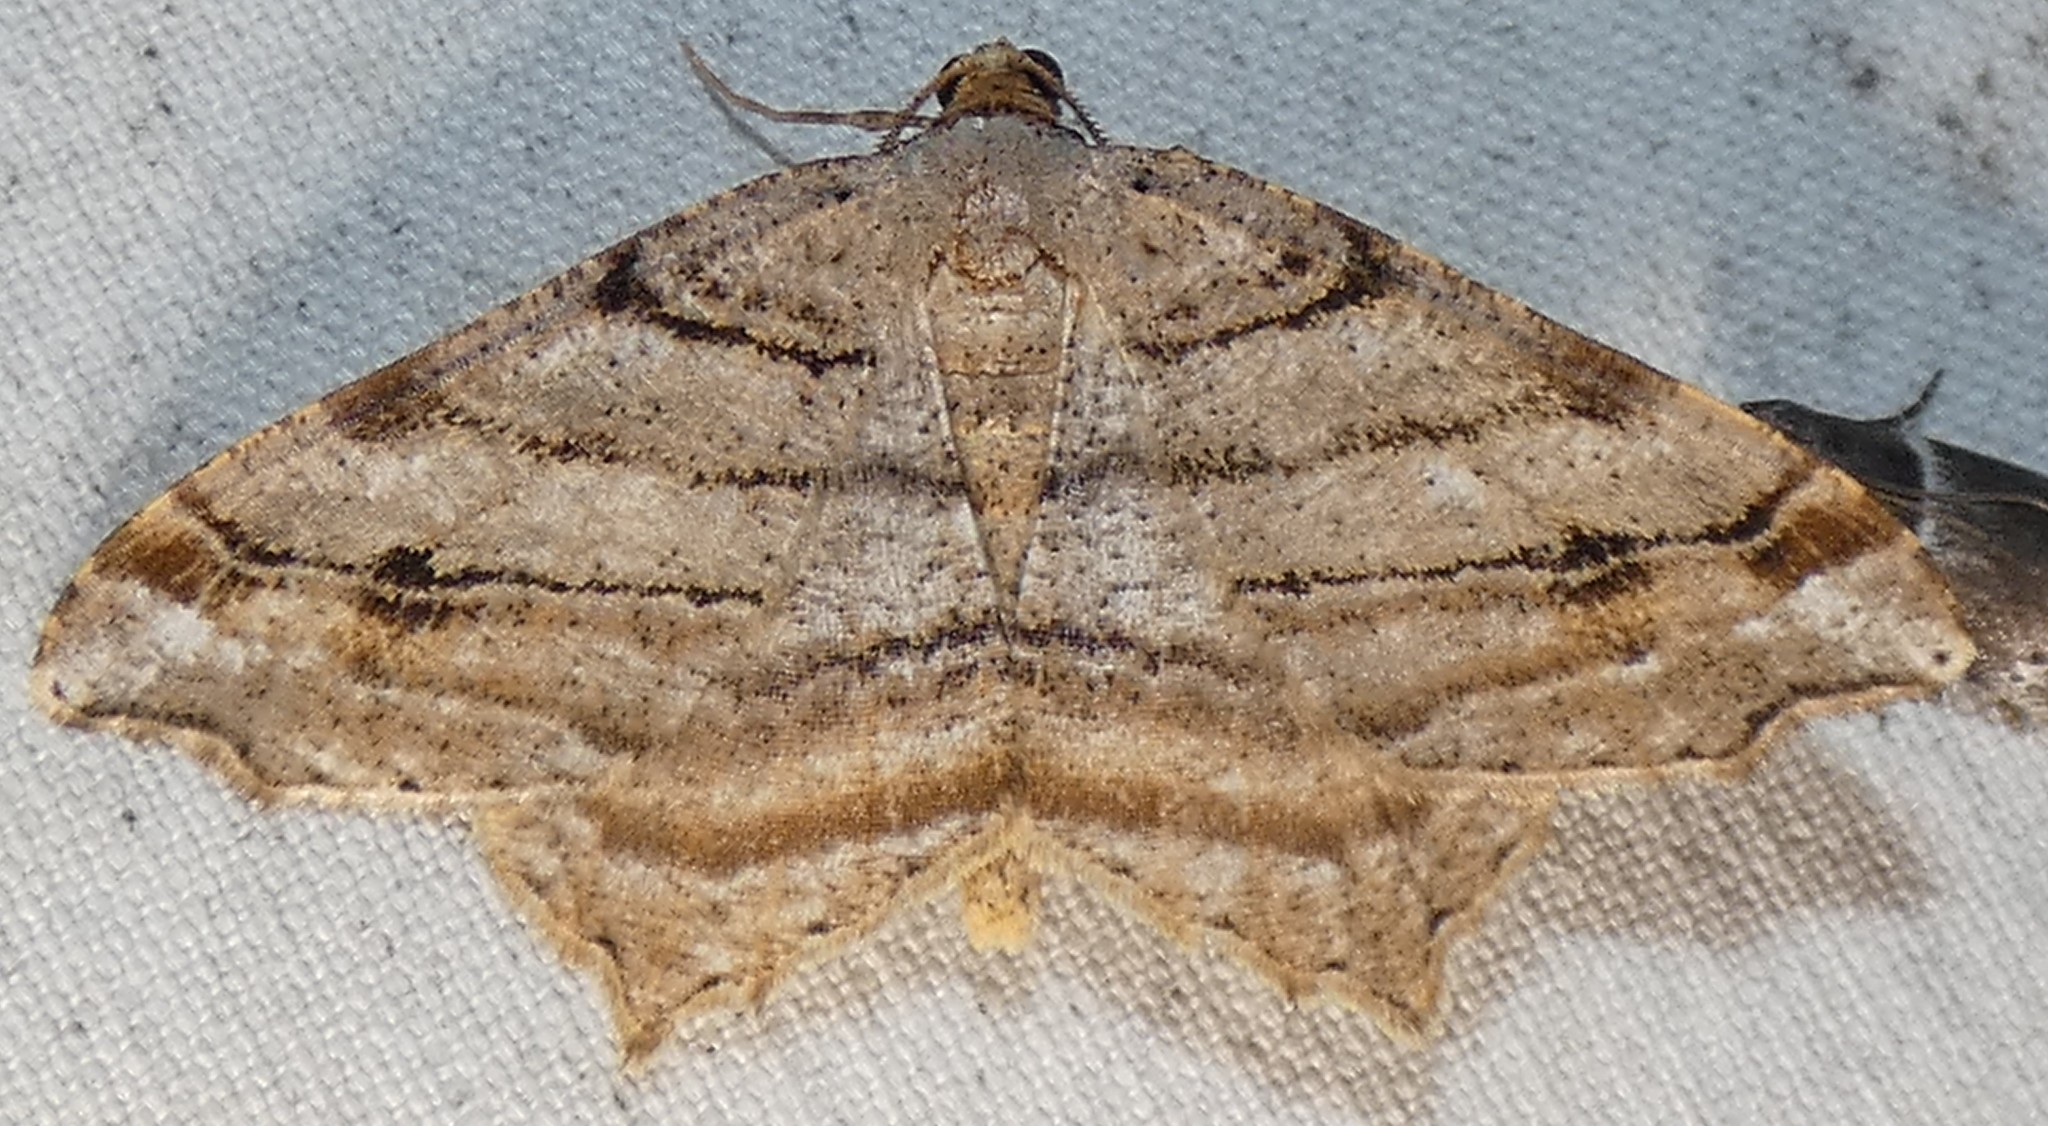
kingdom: Animalia
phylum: Arthropoda
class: Insecta
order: Lepidoptera
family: Geometridae
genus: Macaria
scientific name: Macaria multilineata
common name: Many-lined angle
